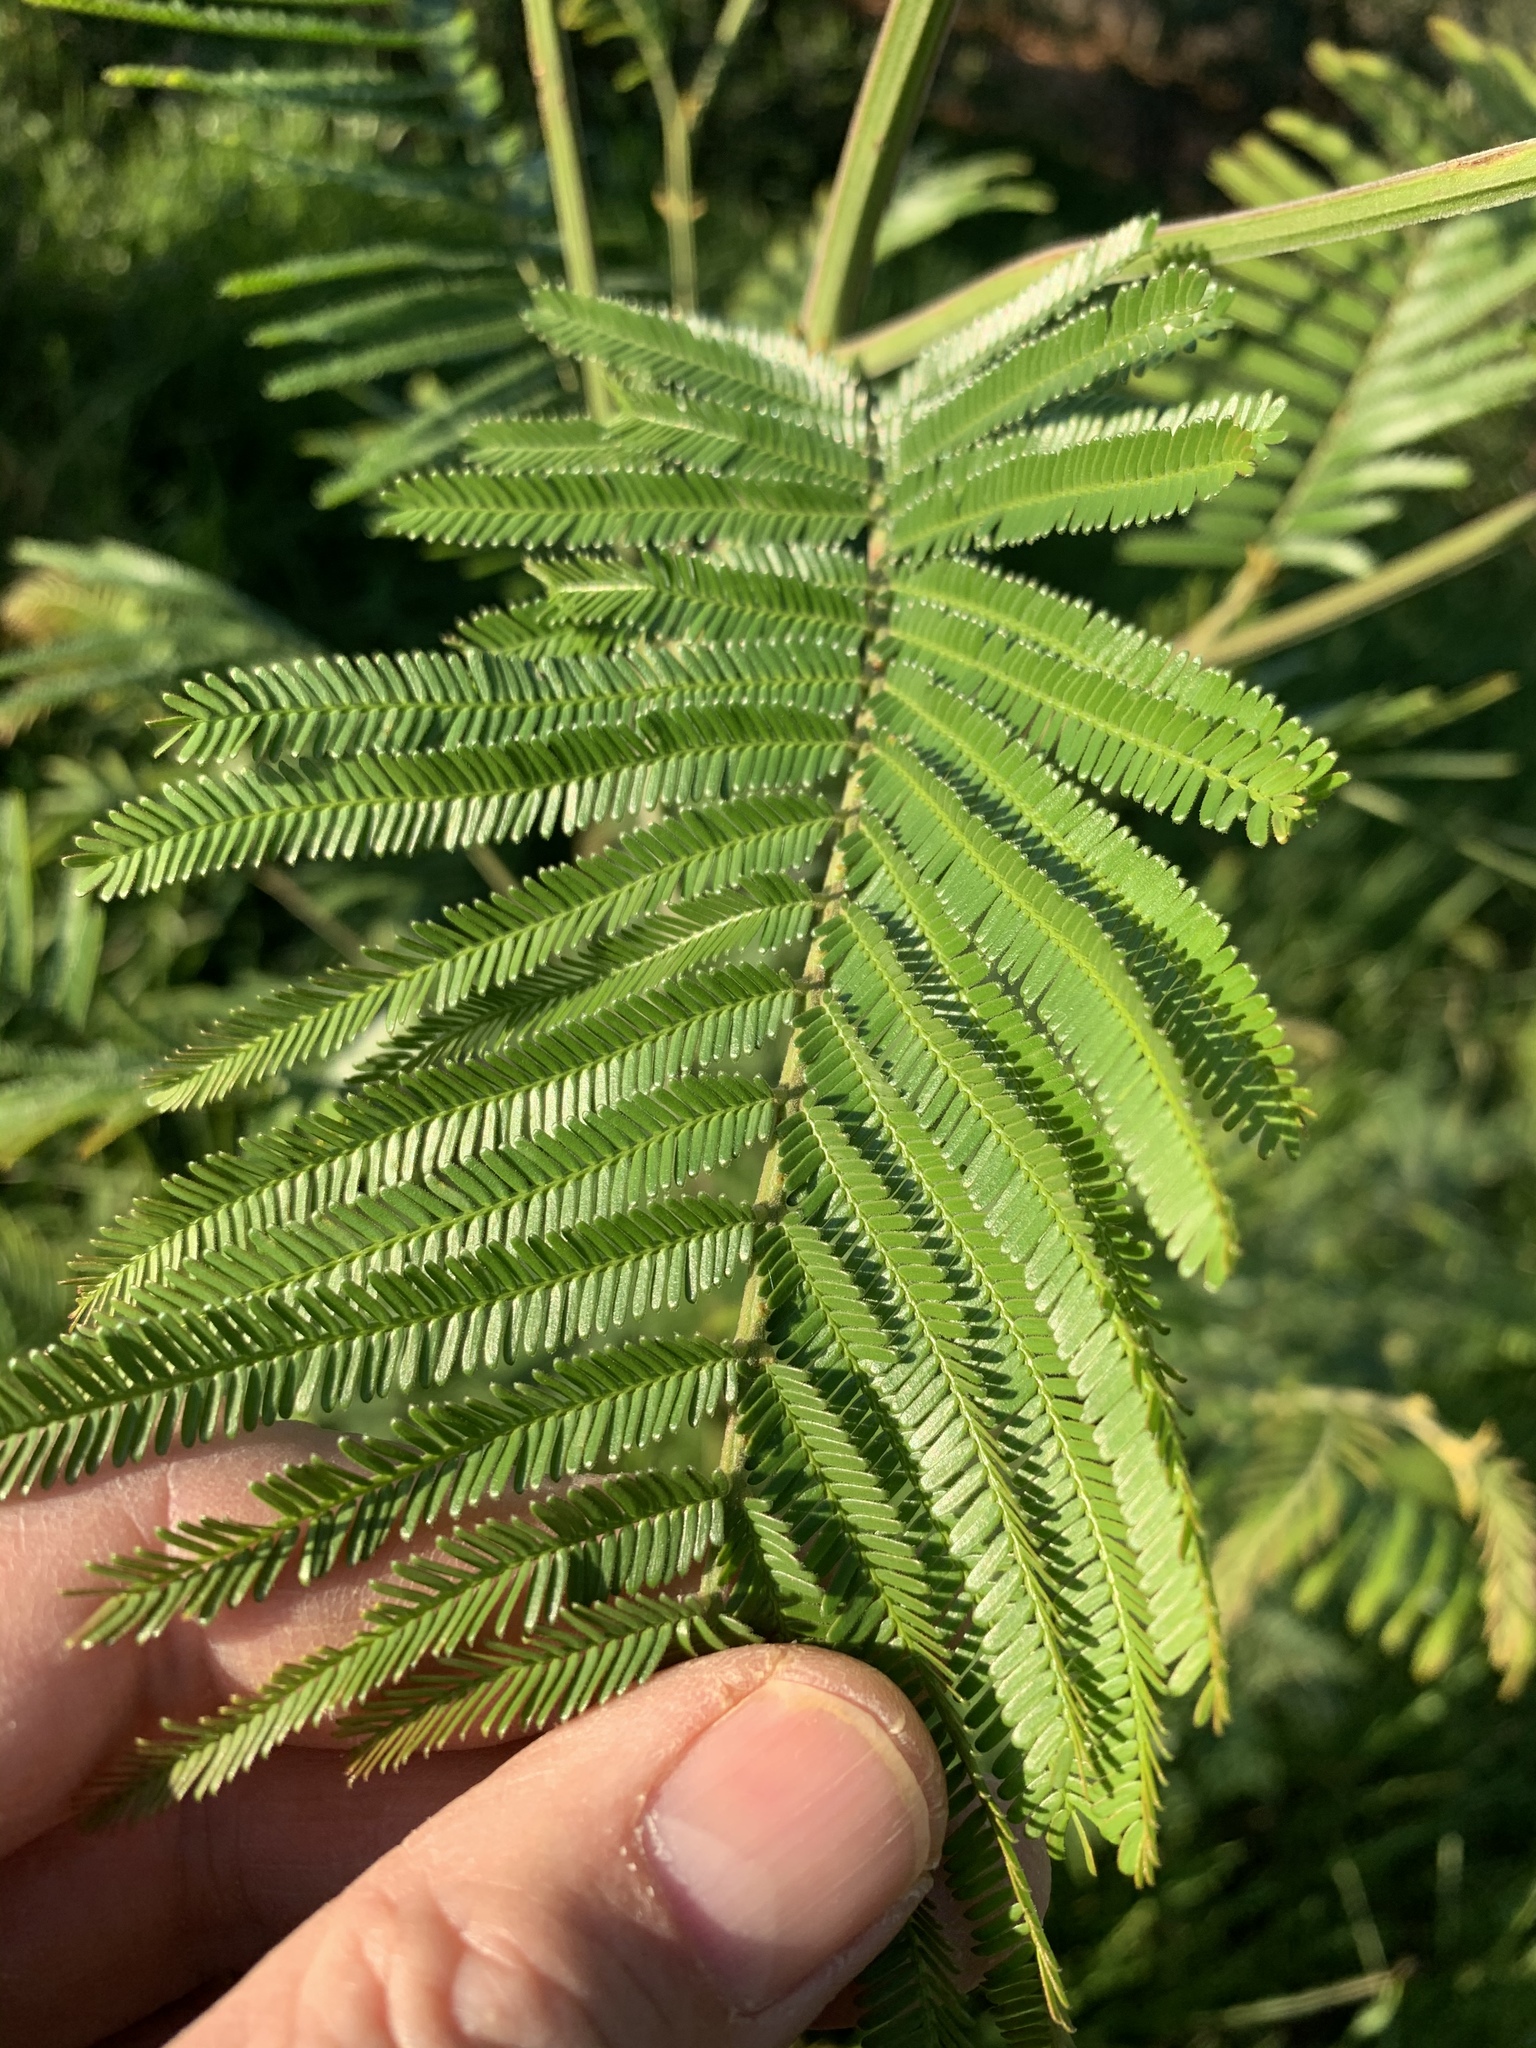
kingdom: Plantae
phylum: Tracheophyta
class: Magnoliopsida
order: Fabales
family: Fabaceae
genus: Acacia
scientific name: Acacia mearnsii
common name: Black wattle
